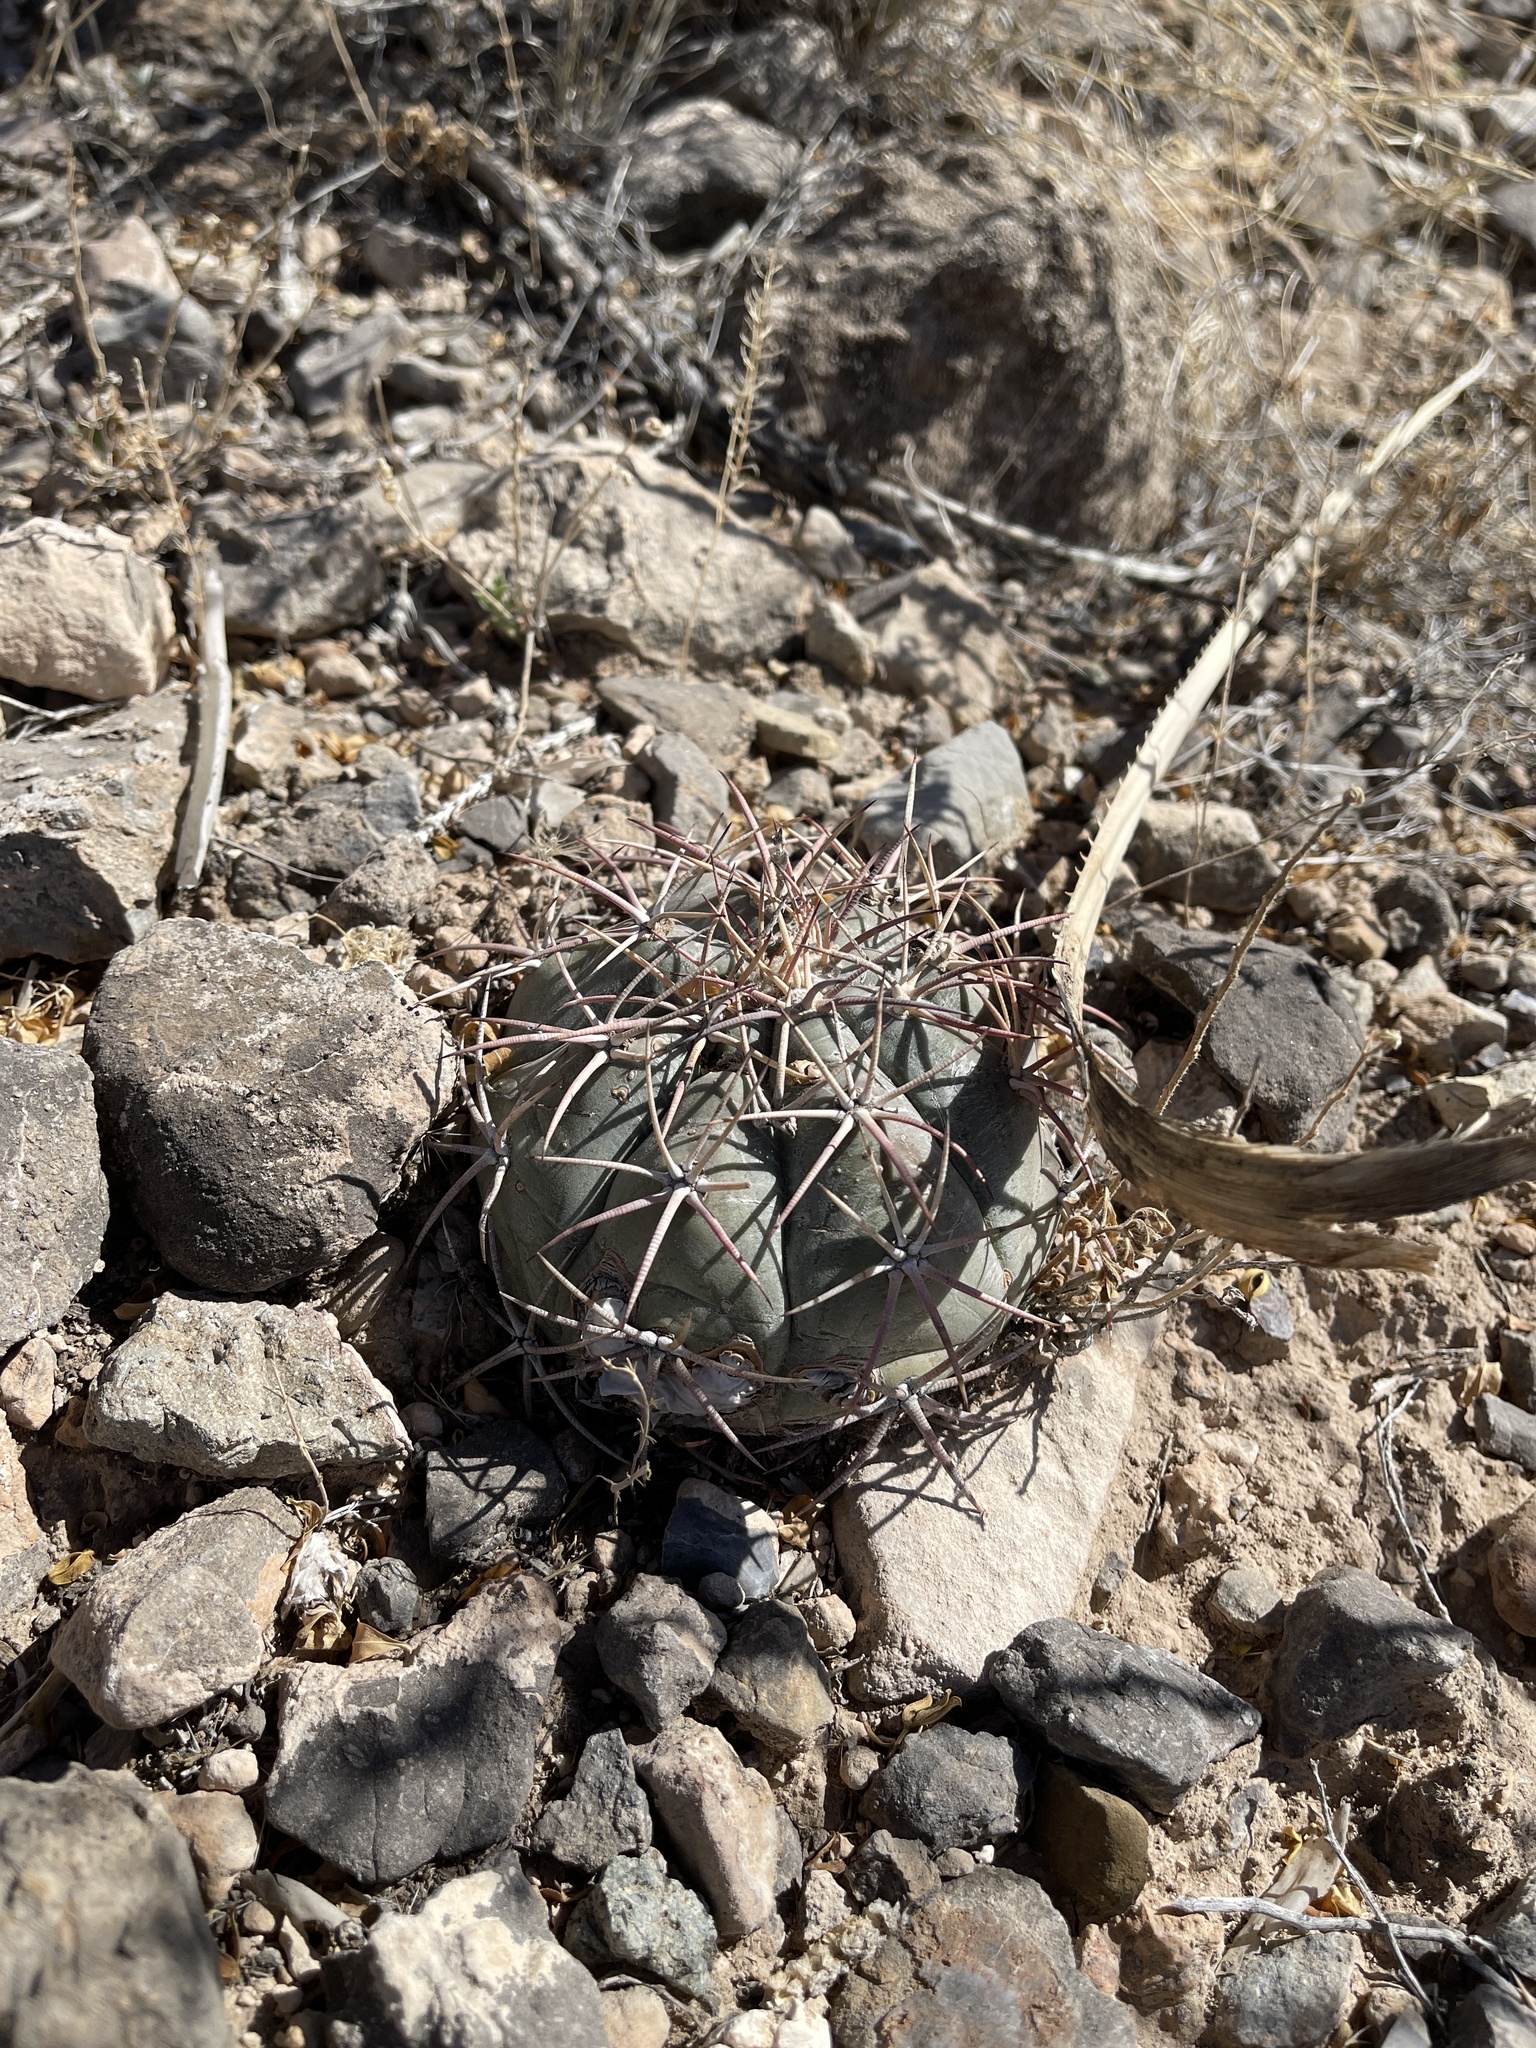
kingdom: Plantae
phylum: Tracheophyta
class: Magnoliopsida
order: Caryophyllales
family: Cactaceae
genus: Echinocactus
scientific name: Echinocactus horizonthalonius
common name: Devilshead
